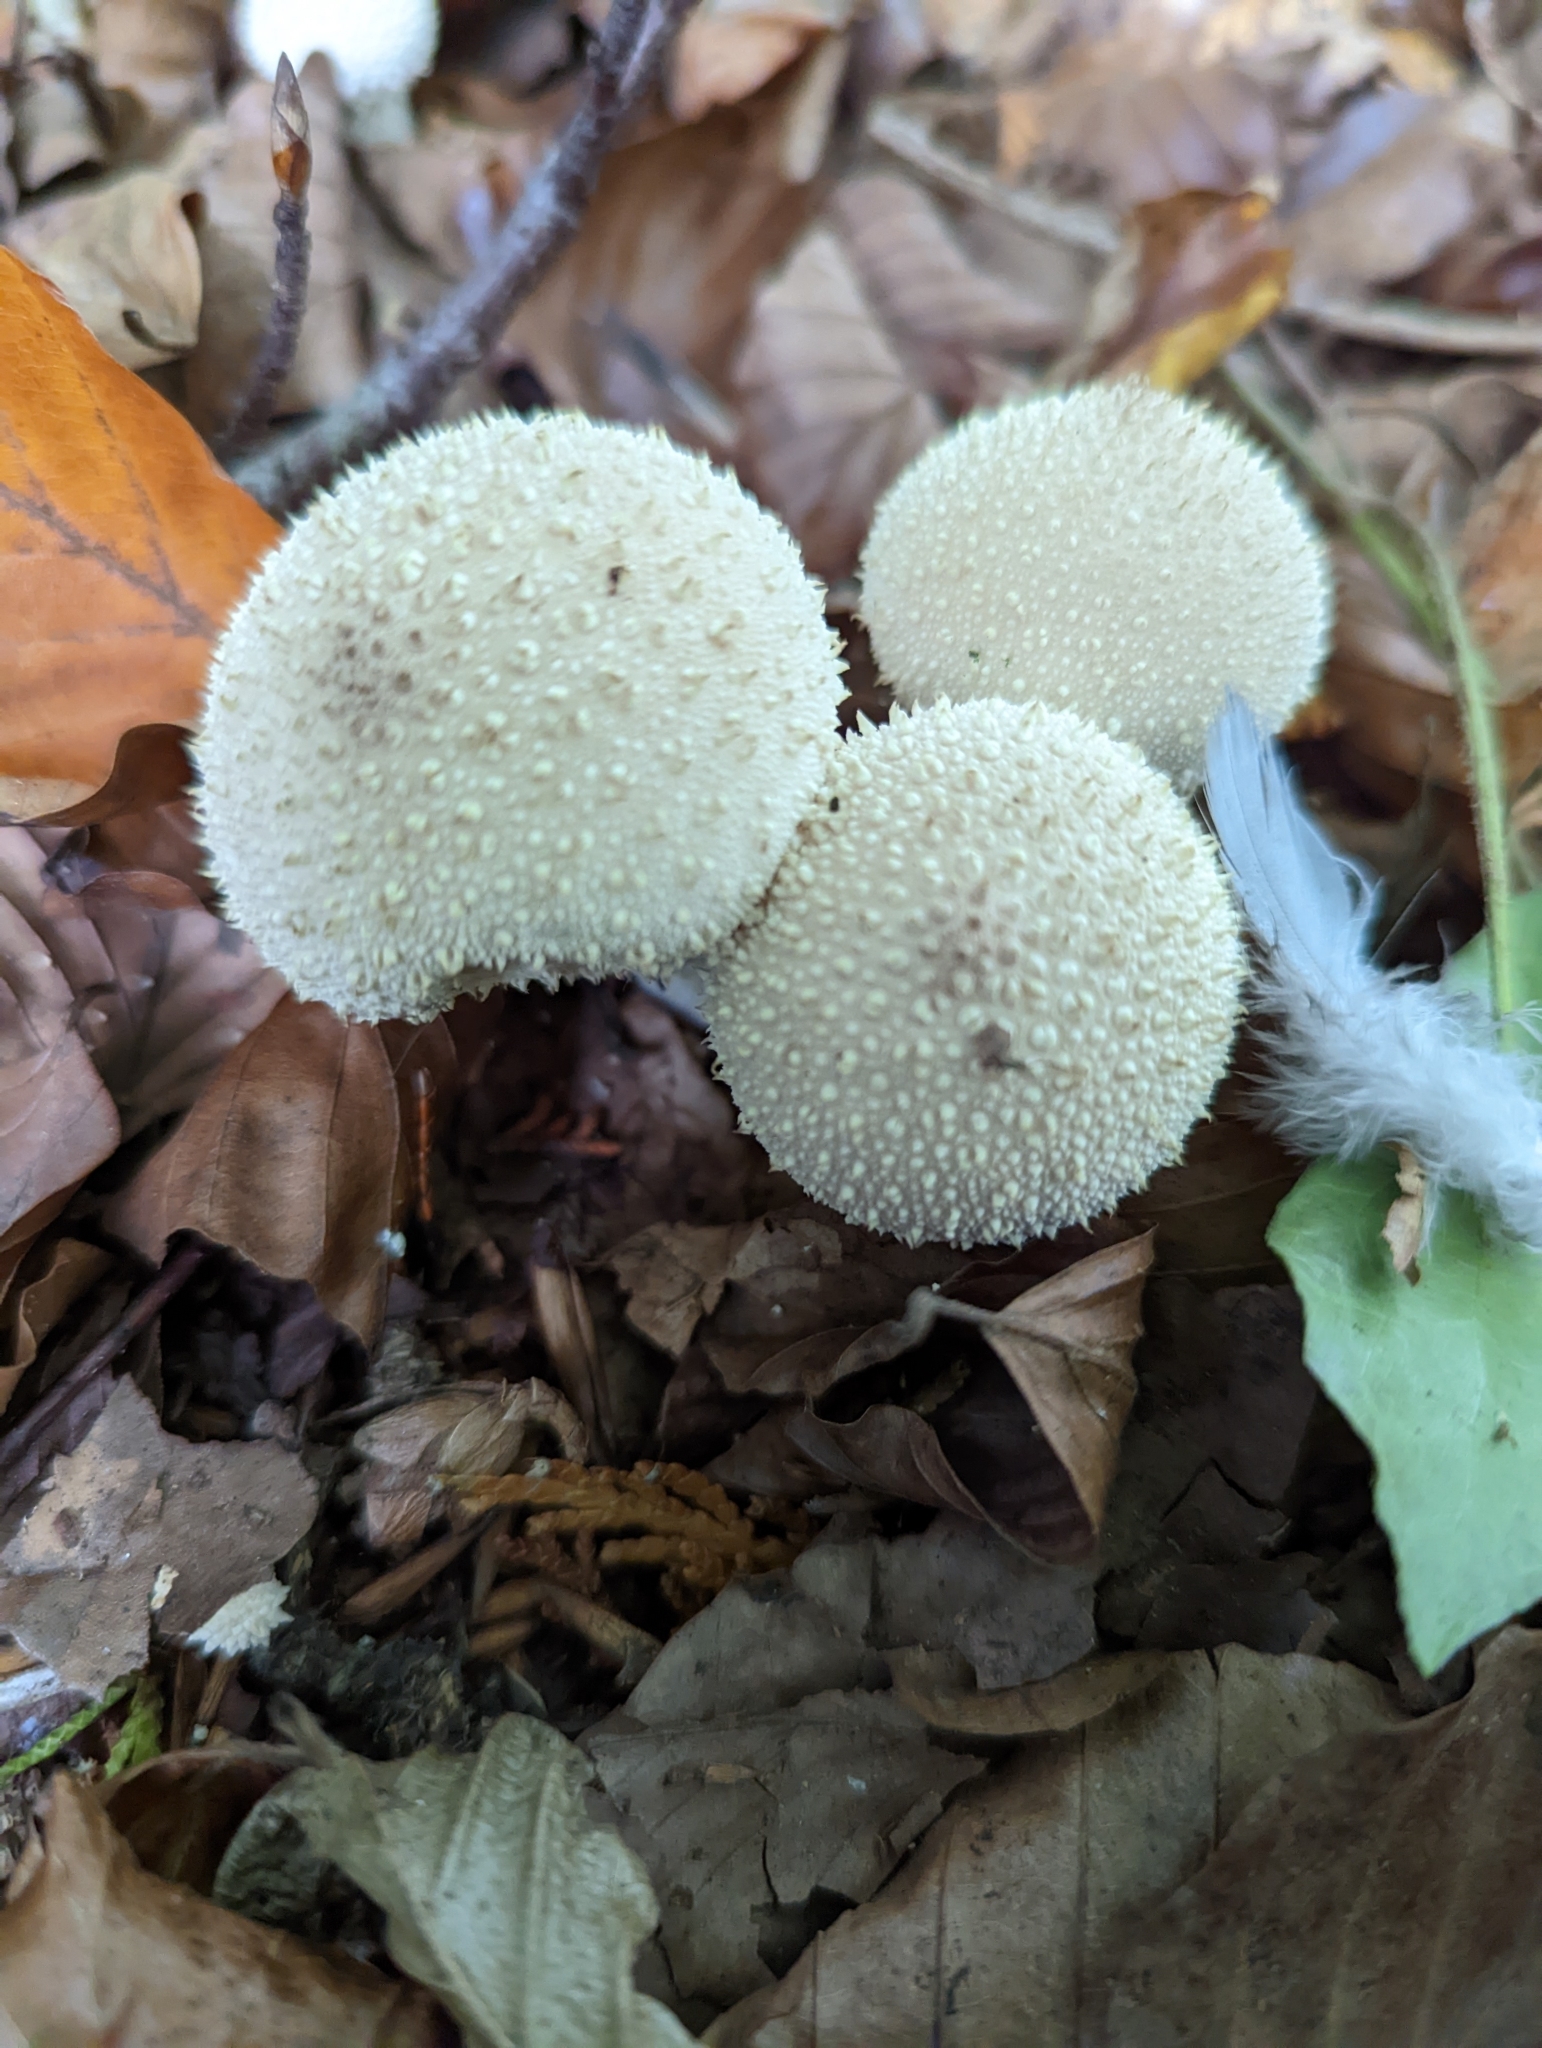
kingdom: Fungi
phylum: Basidiomycota
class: Agaricomycetes
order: Agaricales
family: Lycoperdaceae
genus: Lycoperdon
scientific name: Lycoperdon perlatum
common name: Common puffball
